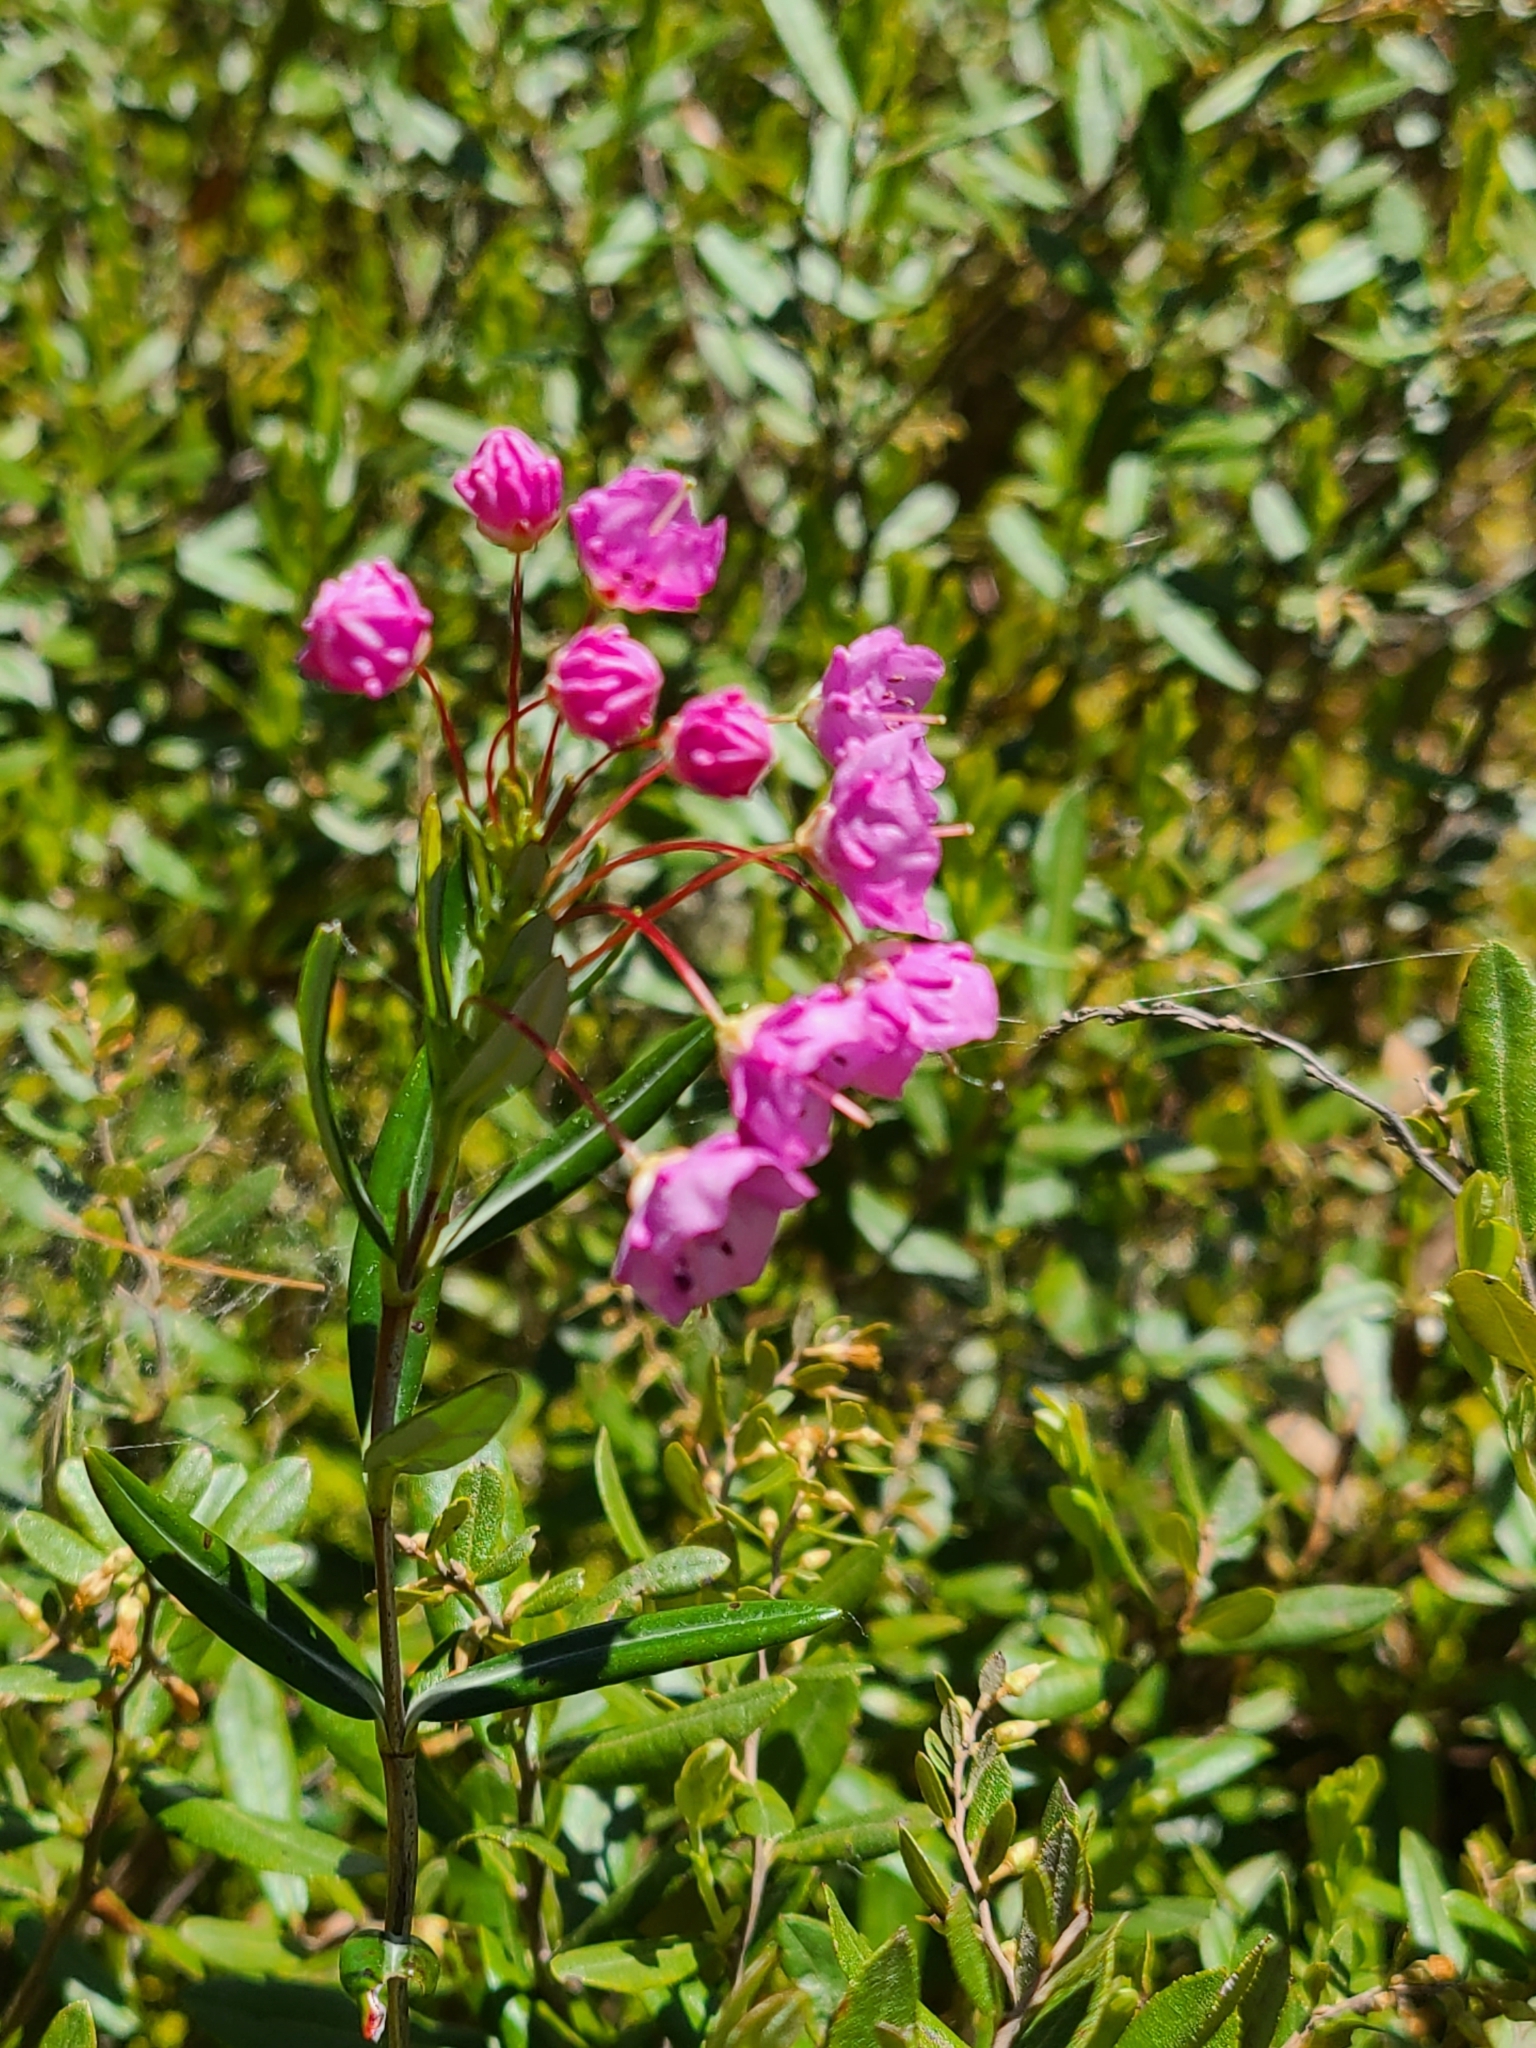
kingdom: Plantae
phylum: Tracheophyta
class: Magnoliopsida
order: Ericales
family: Ericaceae
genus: Kalmia
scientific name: Kalmia polifolia
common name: Bog-laurel
